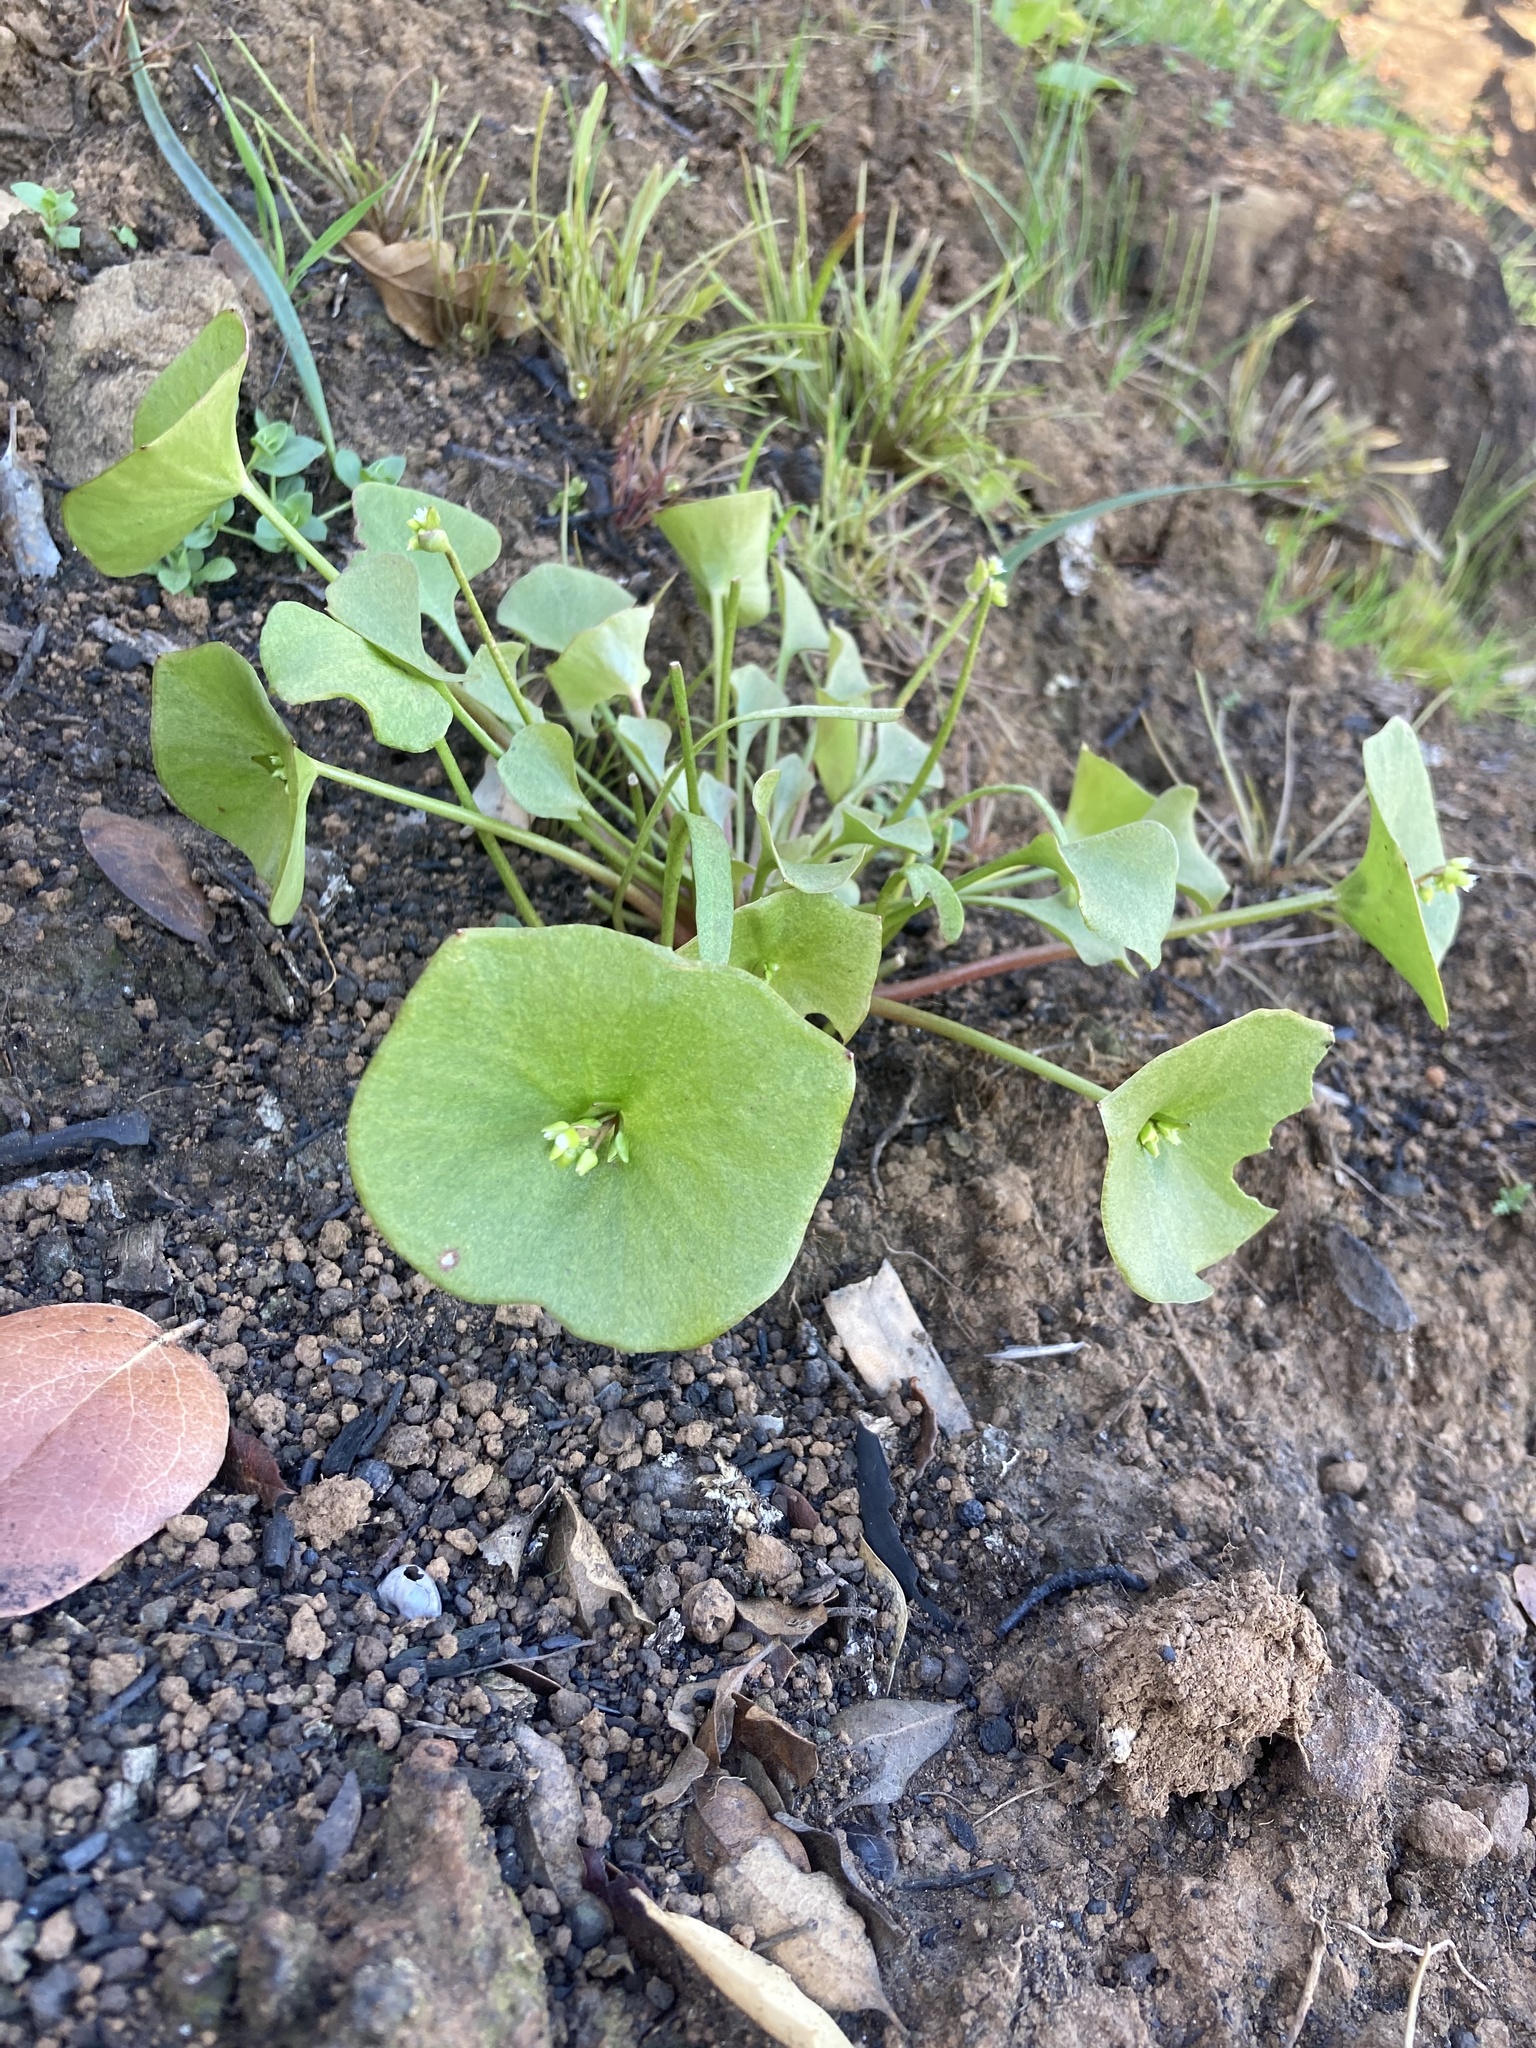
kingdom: Plantae
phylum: Tracheophyta
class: Magnoliopsida
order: Caryophyllales
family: Montiaceae
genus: Claytonia
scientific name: Claytonia perfoliata
